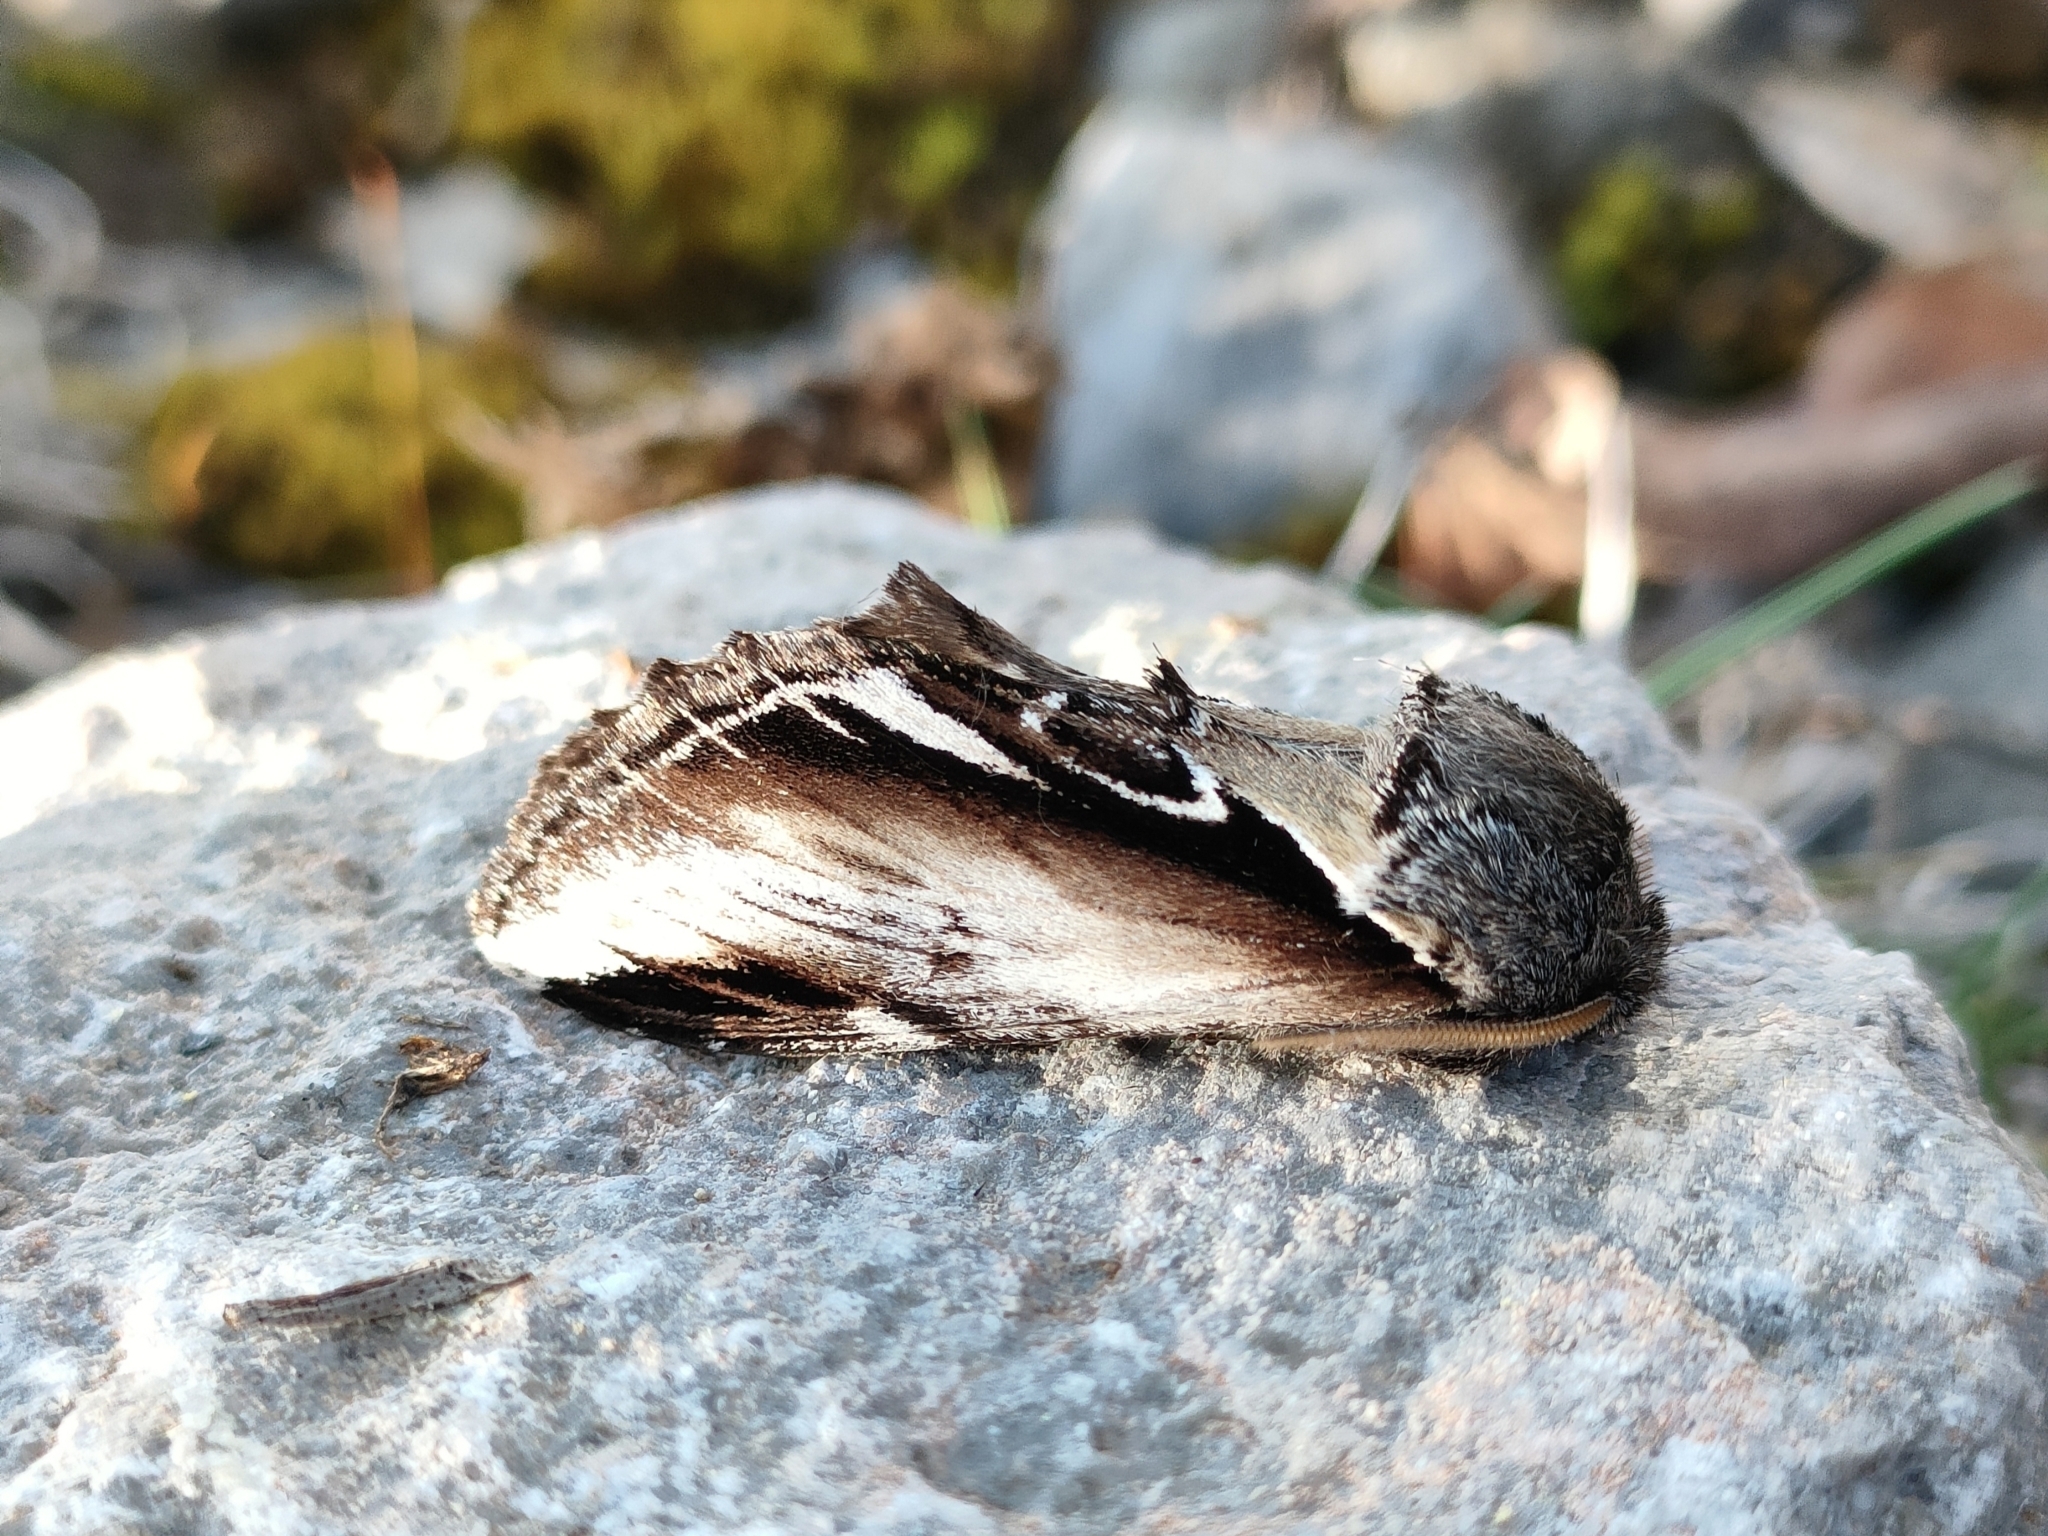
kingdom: Animalia
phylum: Arthropoda
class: Insecta
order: Lepidoptera
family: Notodontidae
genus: Pheosia
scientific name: Pheosia gnoma
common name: Lesser swallow prominent
